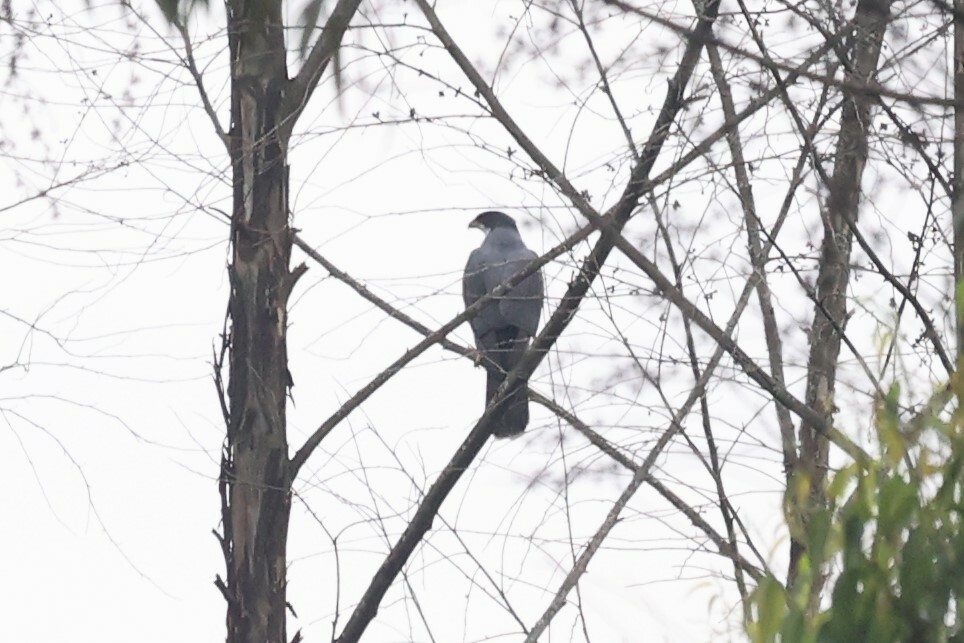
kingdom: Animalia
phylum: Chordata
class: Aves
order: Accipitriformes
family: Accipitridae
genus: Accipiter
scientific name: Accipiter melanoleucus
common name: Black sparrowhawk
